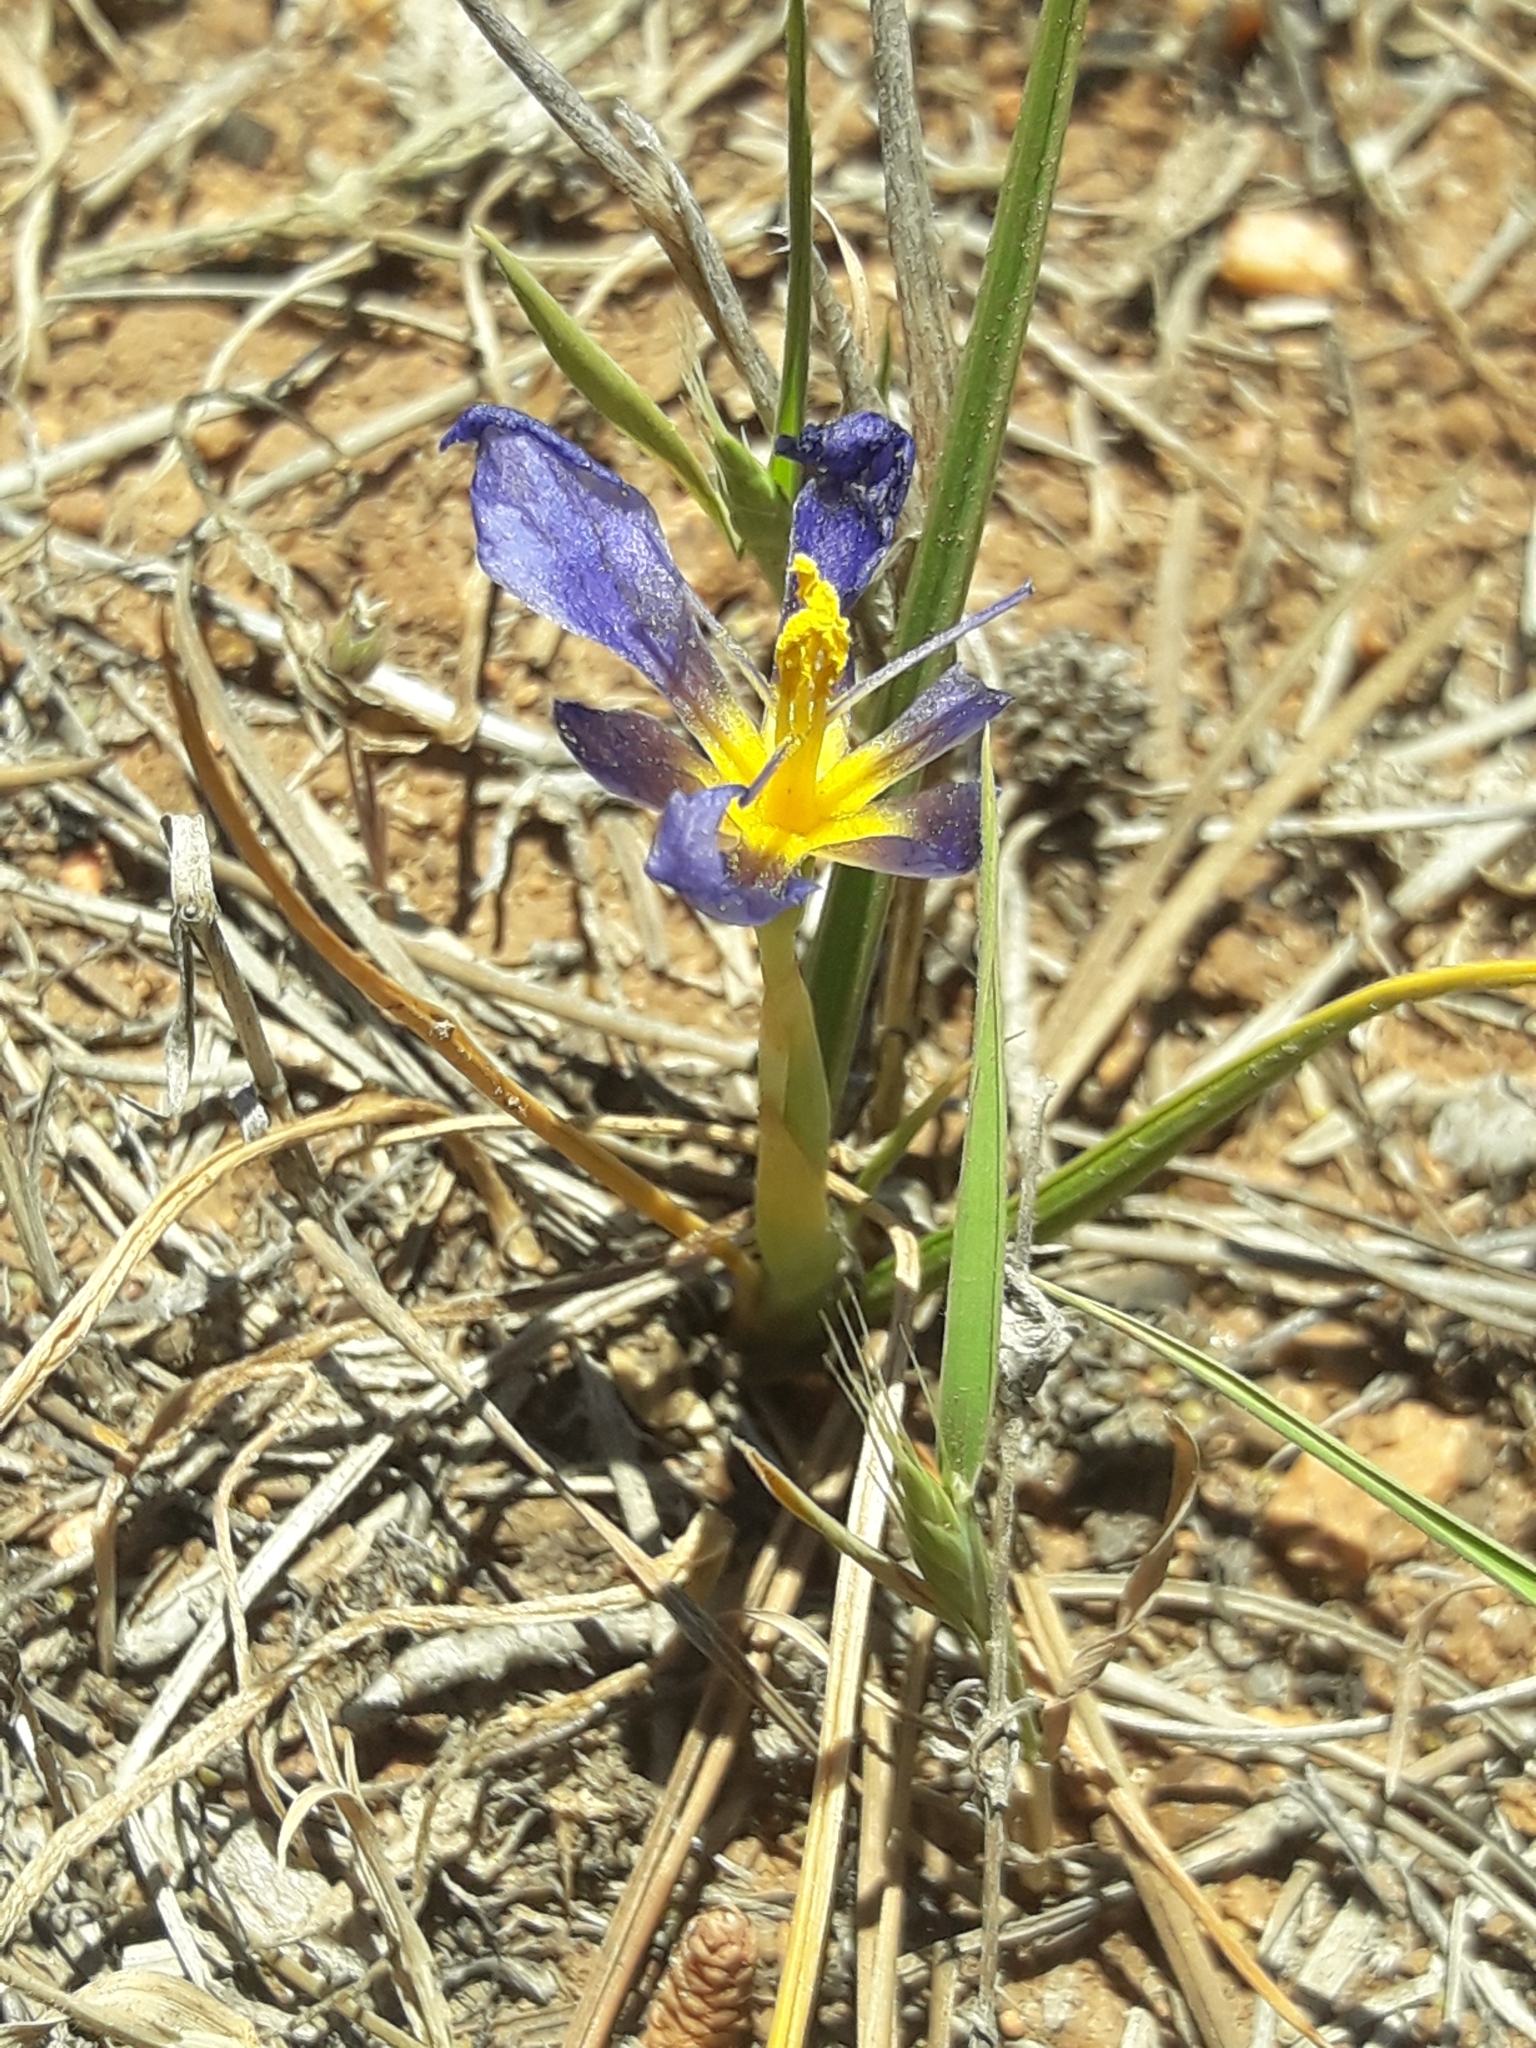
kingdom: Plantae
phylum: Tracheophyta
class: Liliopsida
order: Asparagales
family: Iridaceae
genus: Calydorea
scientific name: Calydorea xiphioides
